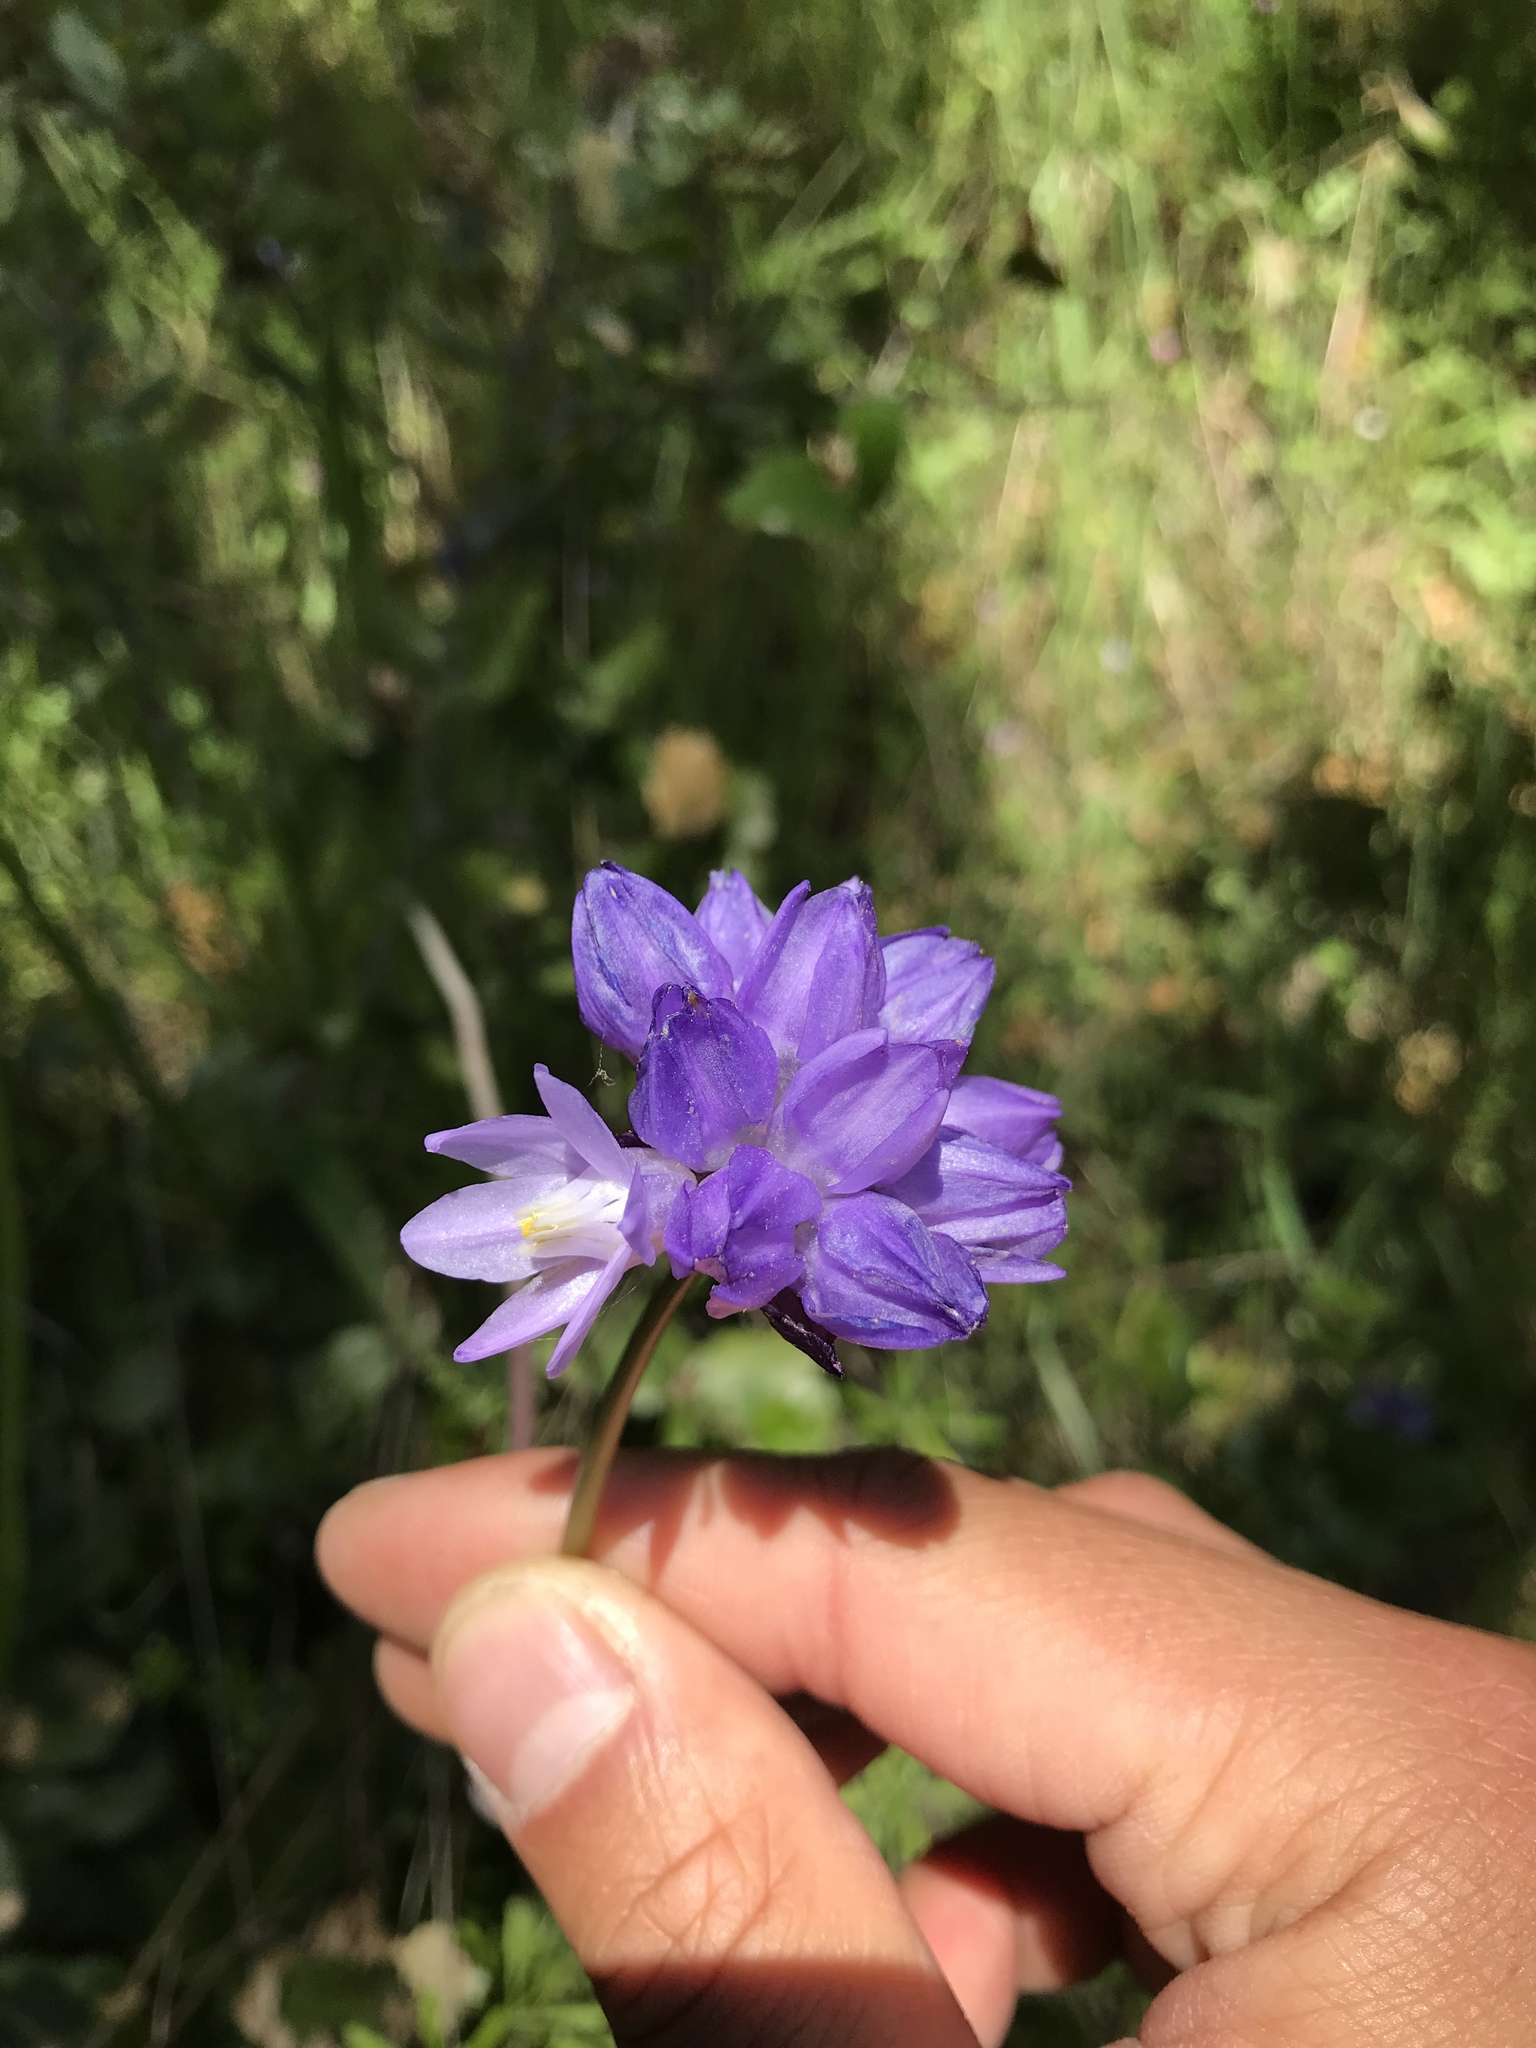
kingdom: Plantae
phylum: Tracheophyta
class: Liliopsida
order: Asparagales
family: Asparagaceae
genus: Dipterostemon
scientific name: Dipterostemon capitatus
